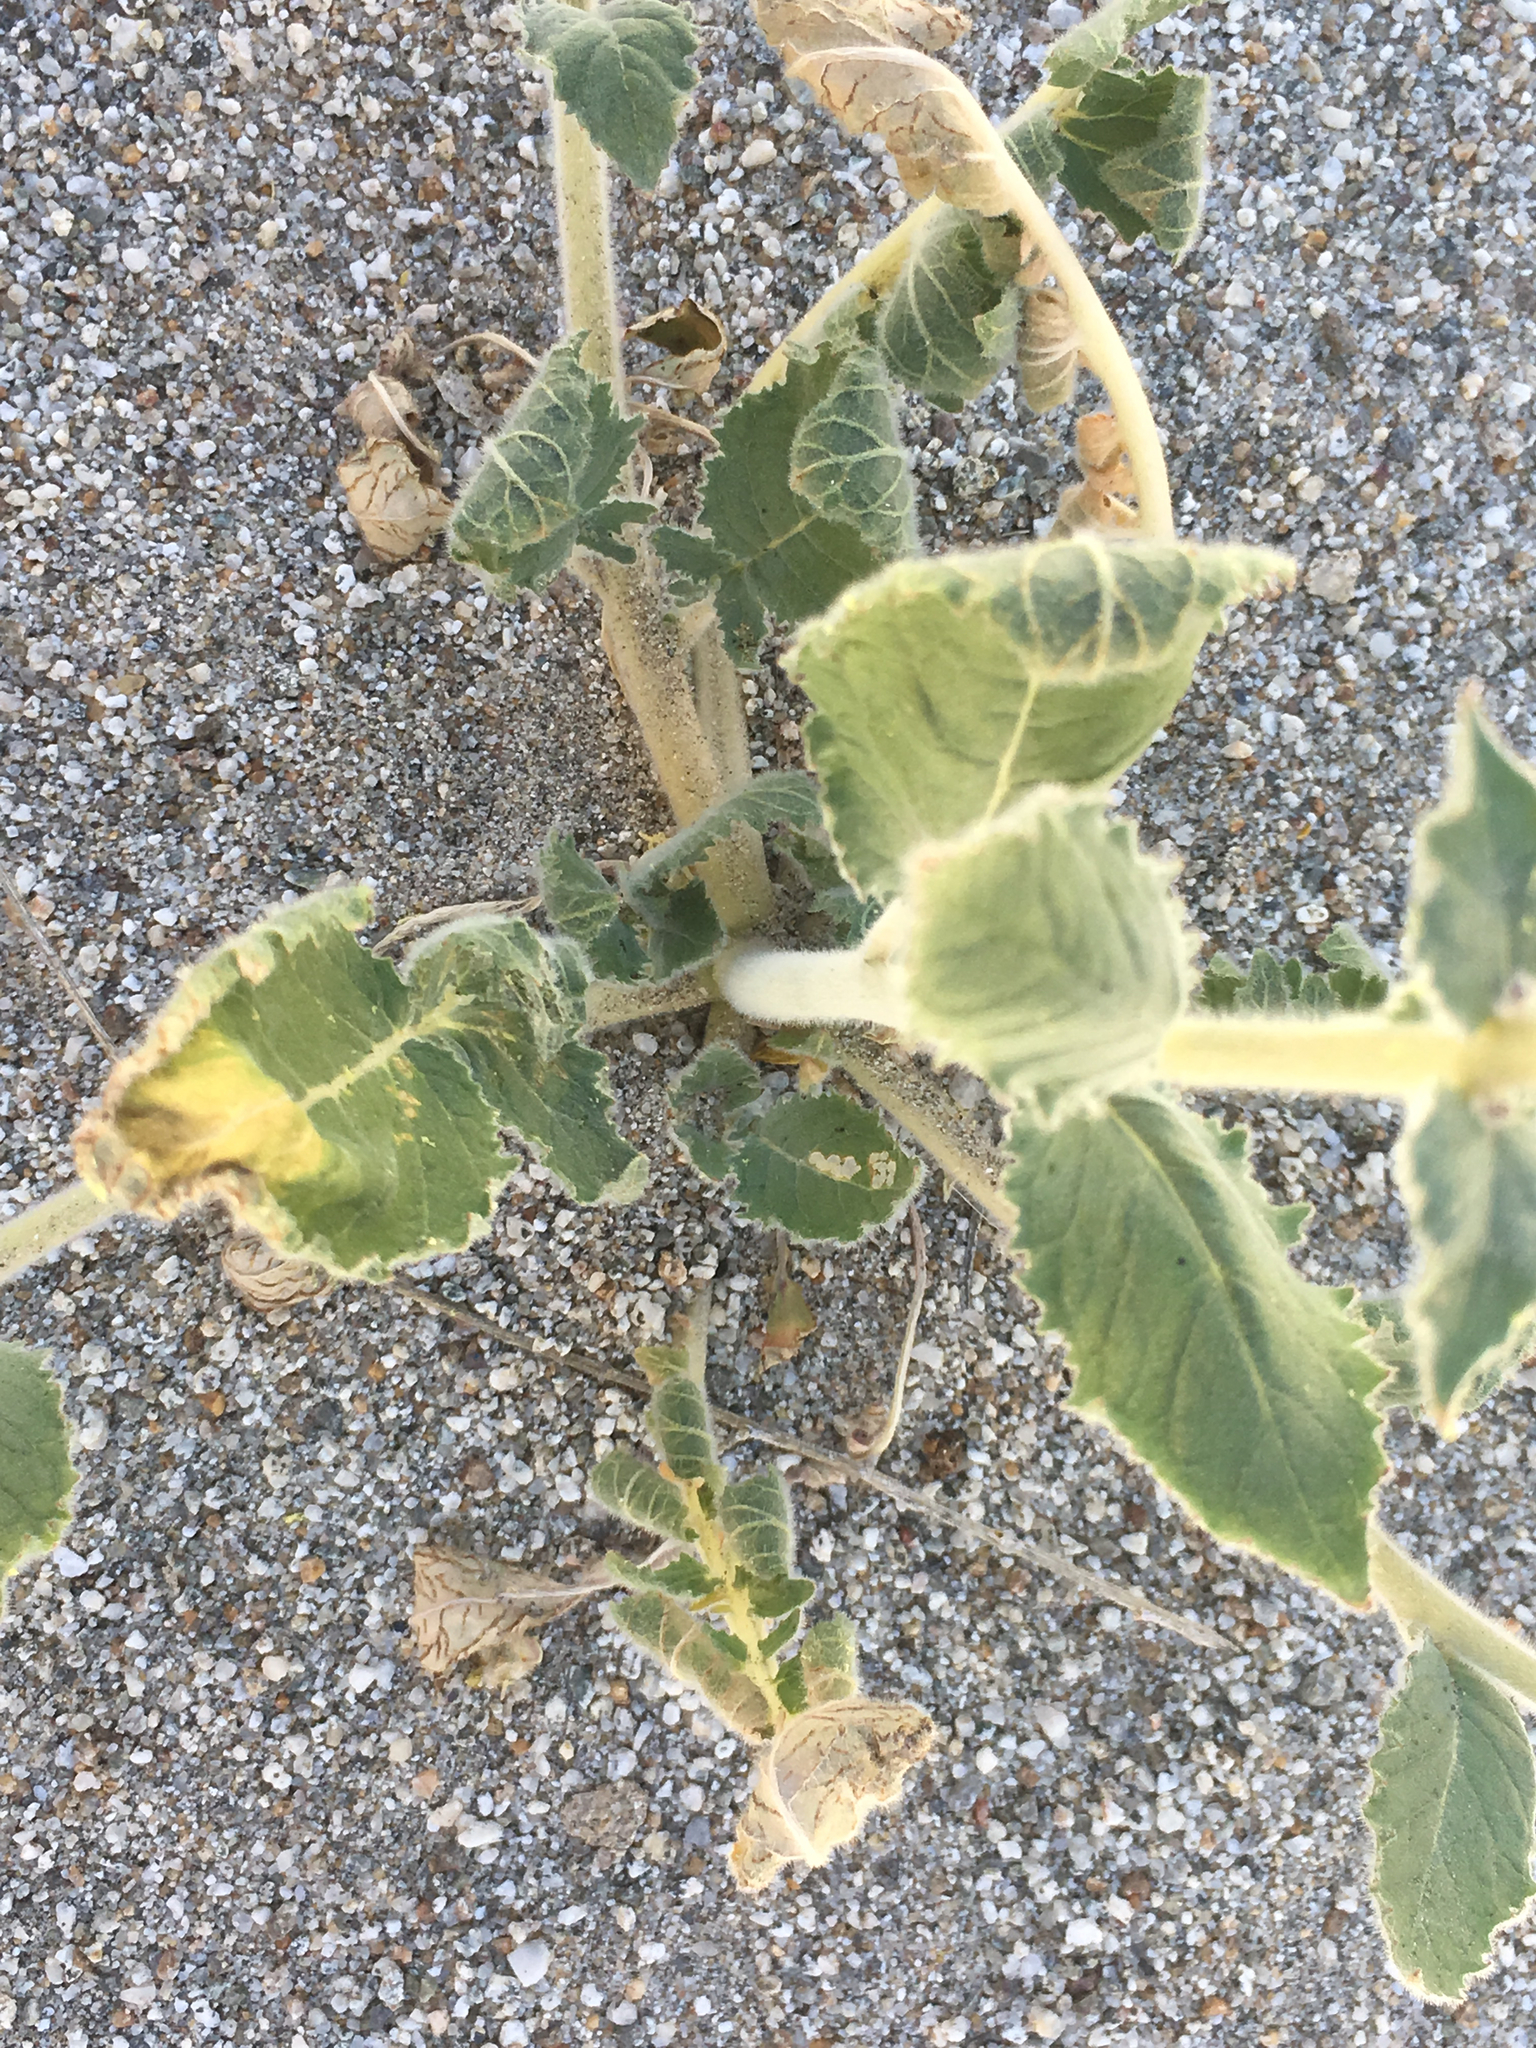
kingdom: Plantae
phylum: Tracheophyta
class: Magnoliopsida
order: Myrtales
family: Onagraceae
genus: Chylismia
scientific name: Chylismia claviformis
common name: Browneyes
